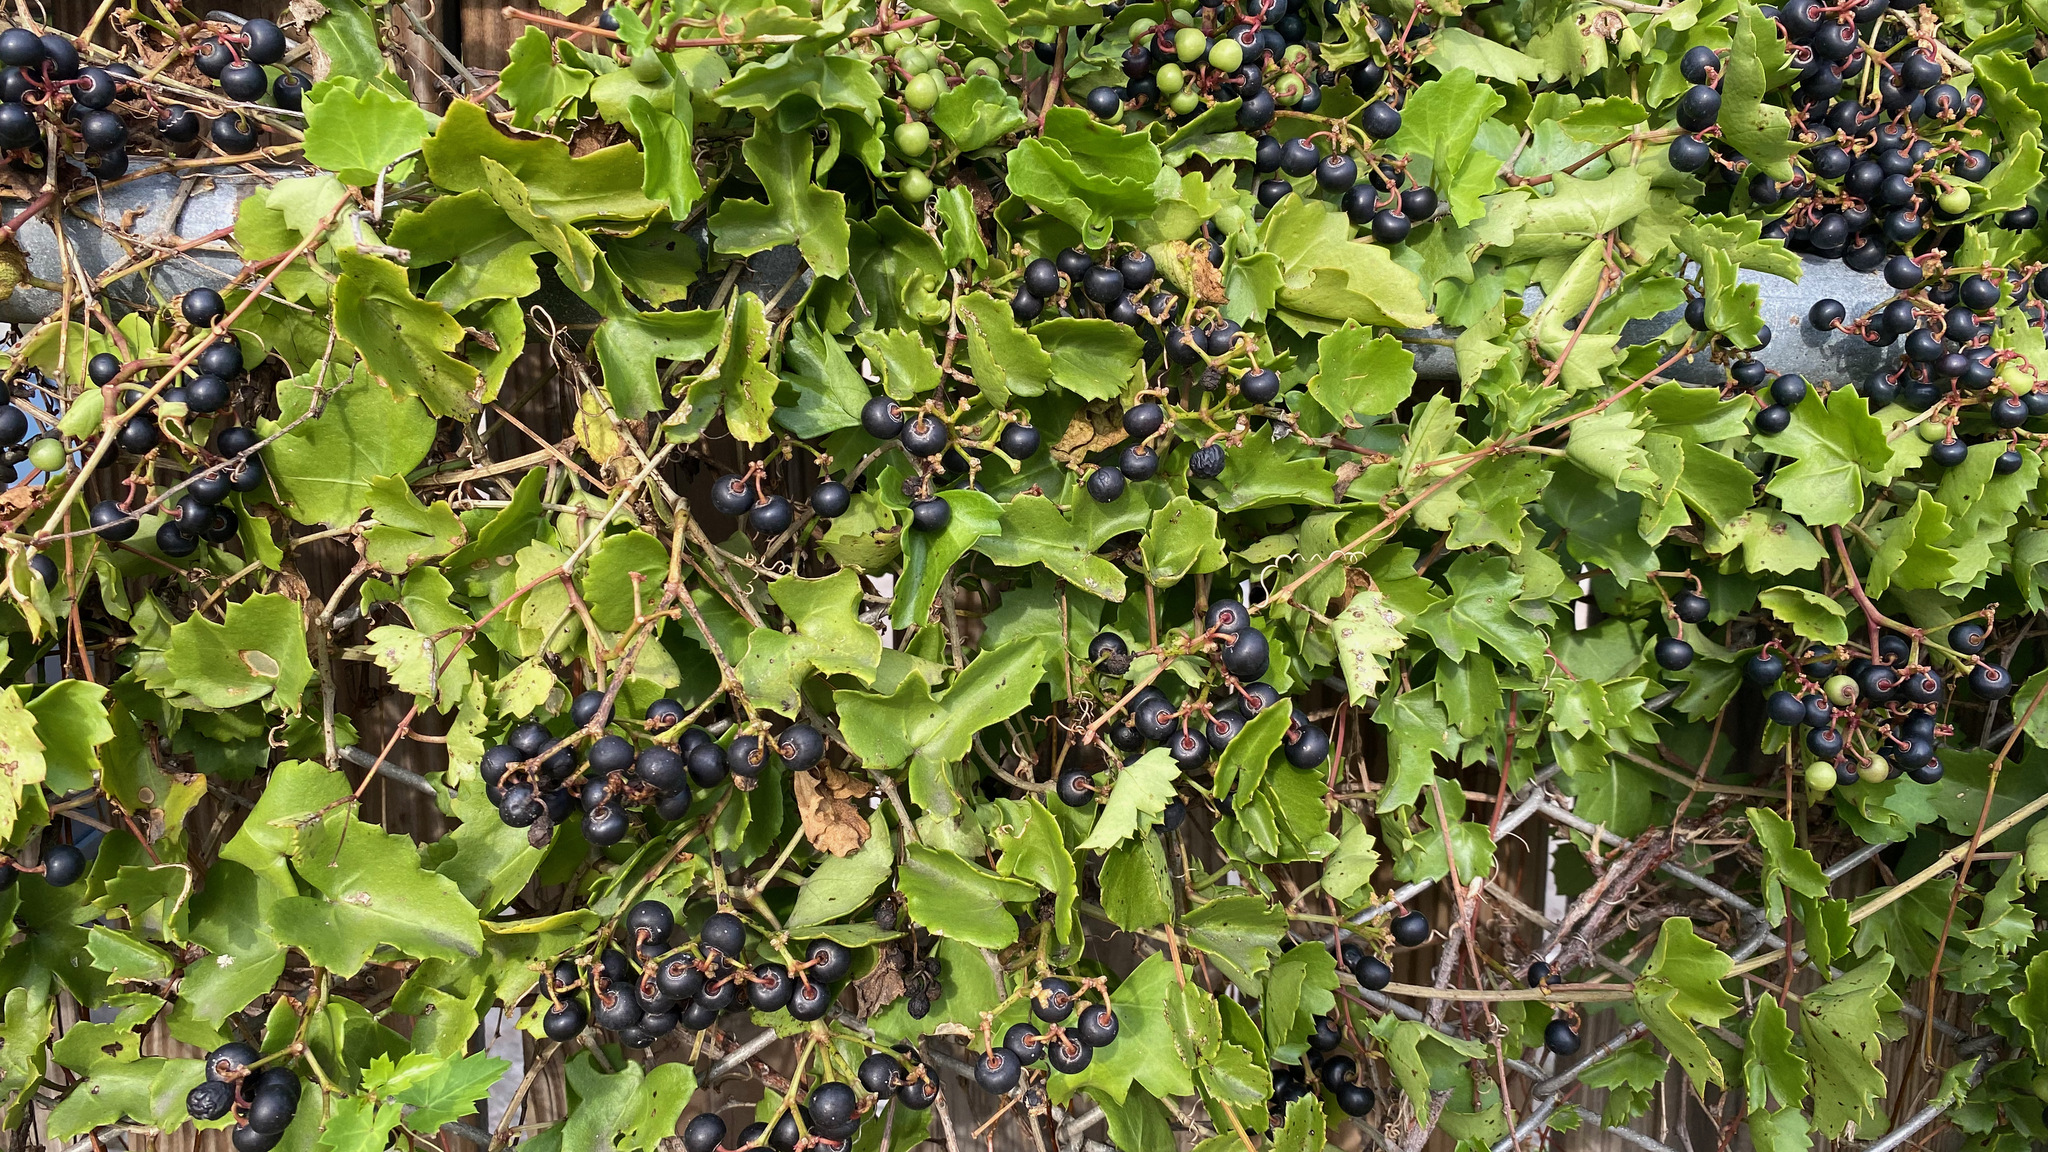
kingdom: Plantae
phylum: Tracheophyta
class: Magnoliopsida
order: Vitales
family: Vitaceae
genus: Cissus
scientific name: Cissus trifoliata
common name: Vine-sorrel
